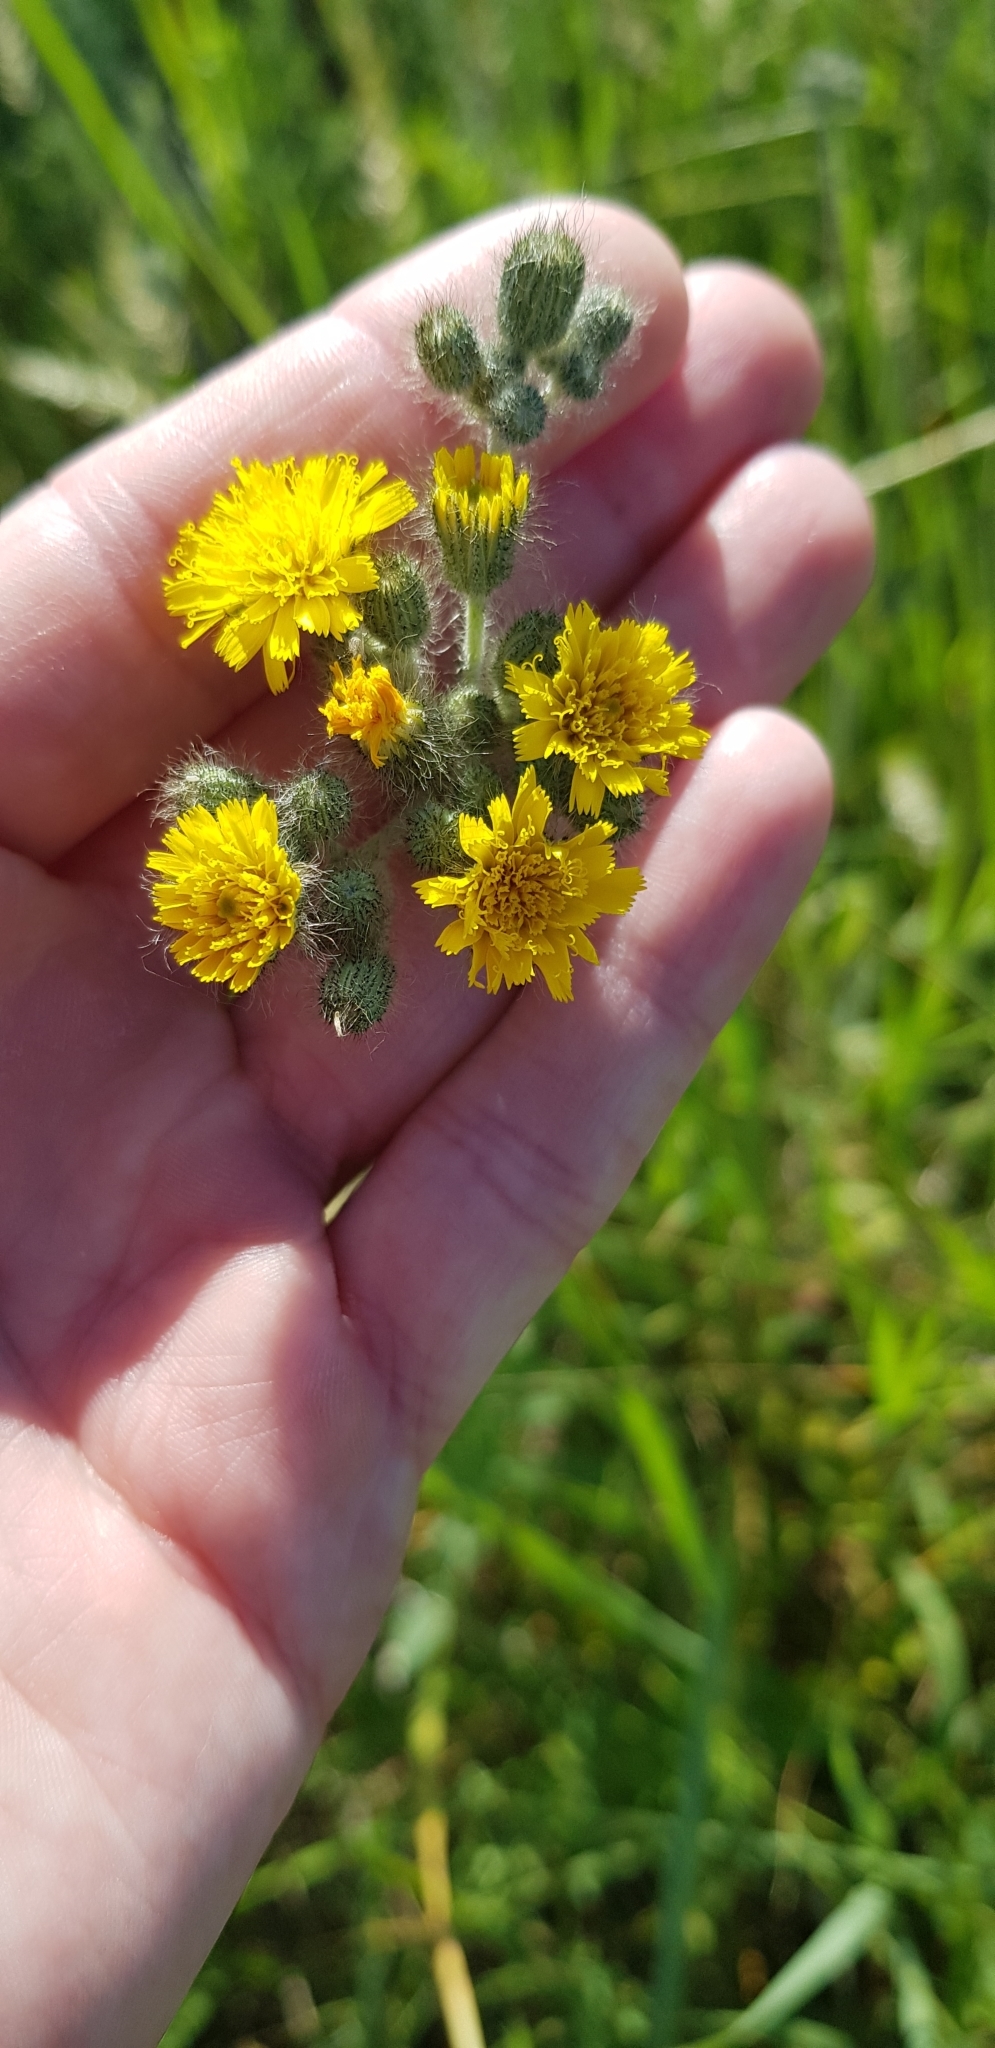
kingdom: Plantae
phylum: Tracheophyta
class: Magnoliopsida
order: Asterales
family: Asteraceae
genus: Pilosella
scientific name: Pilosella
